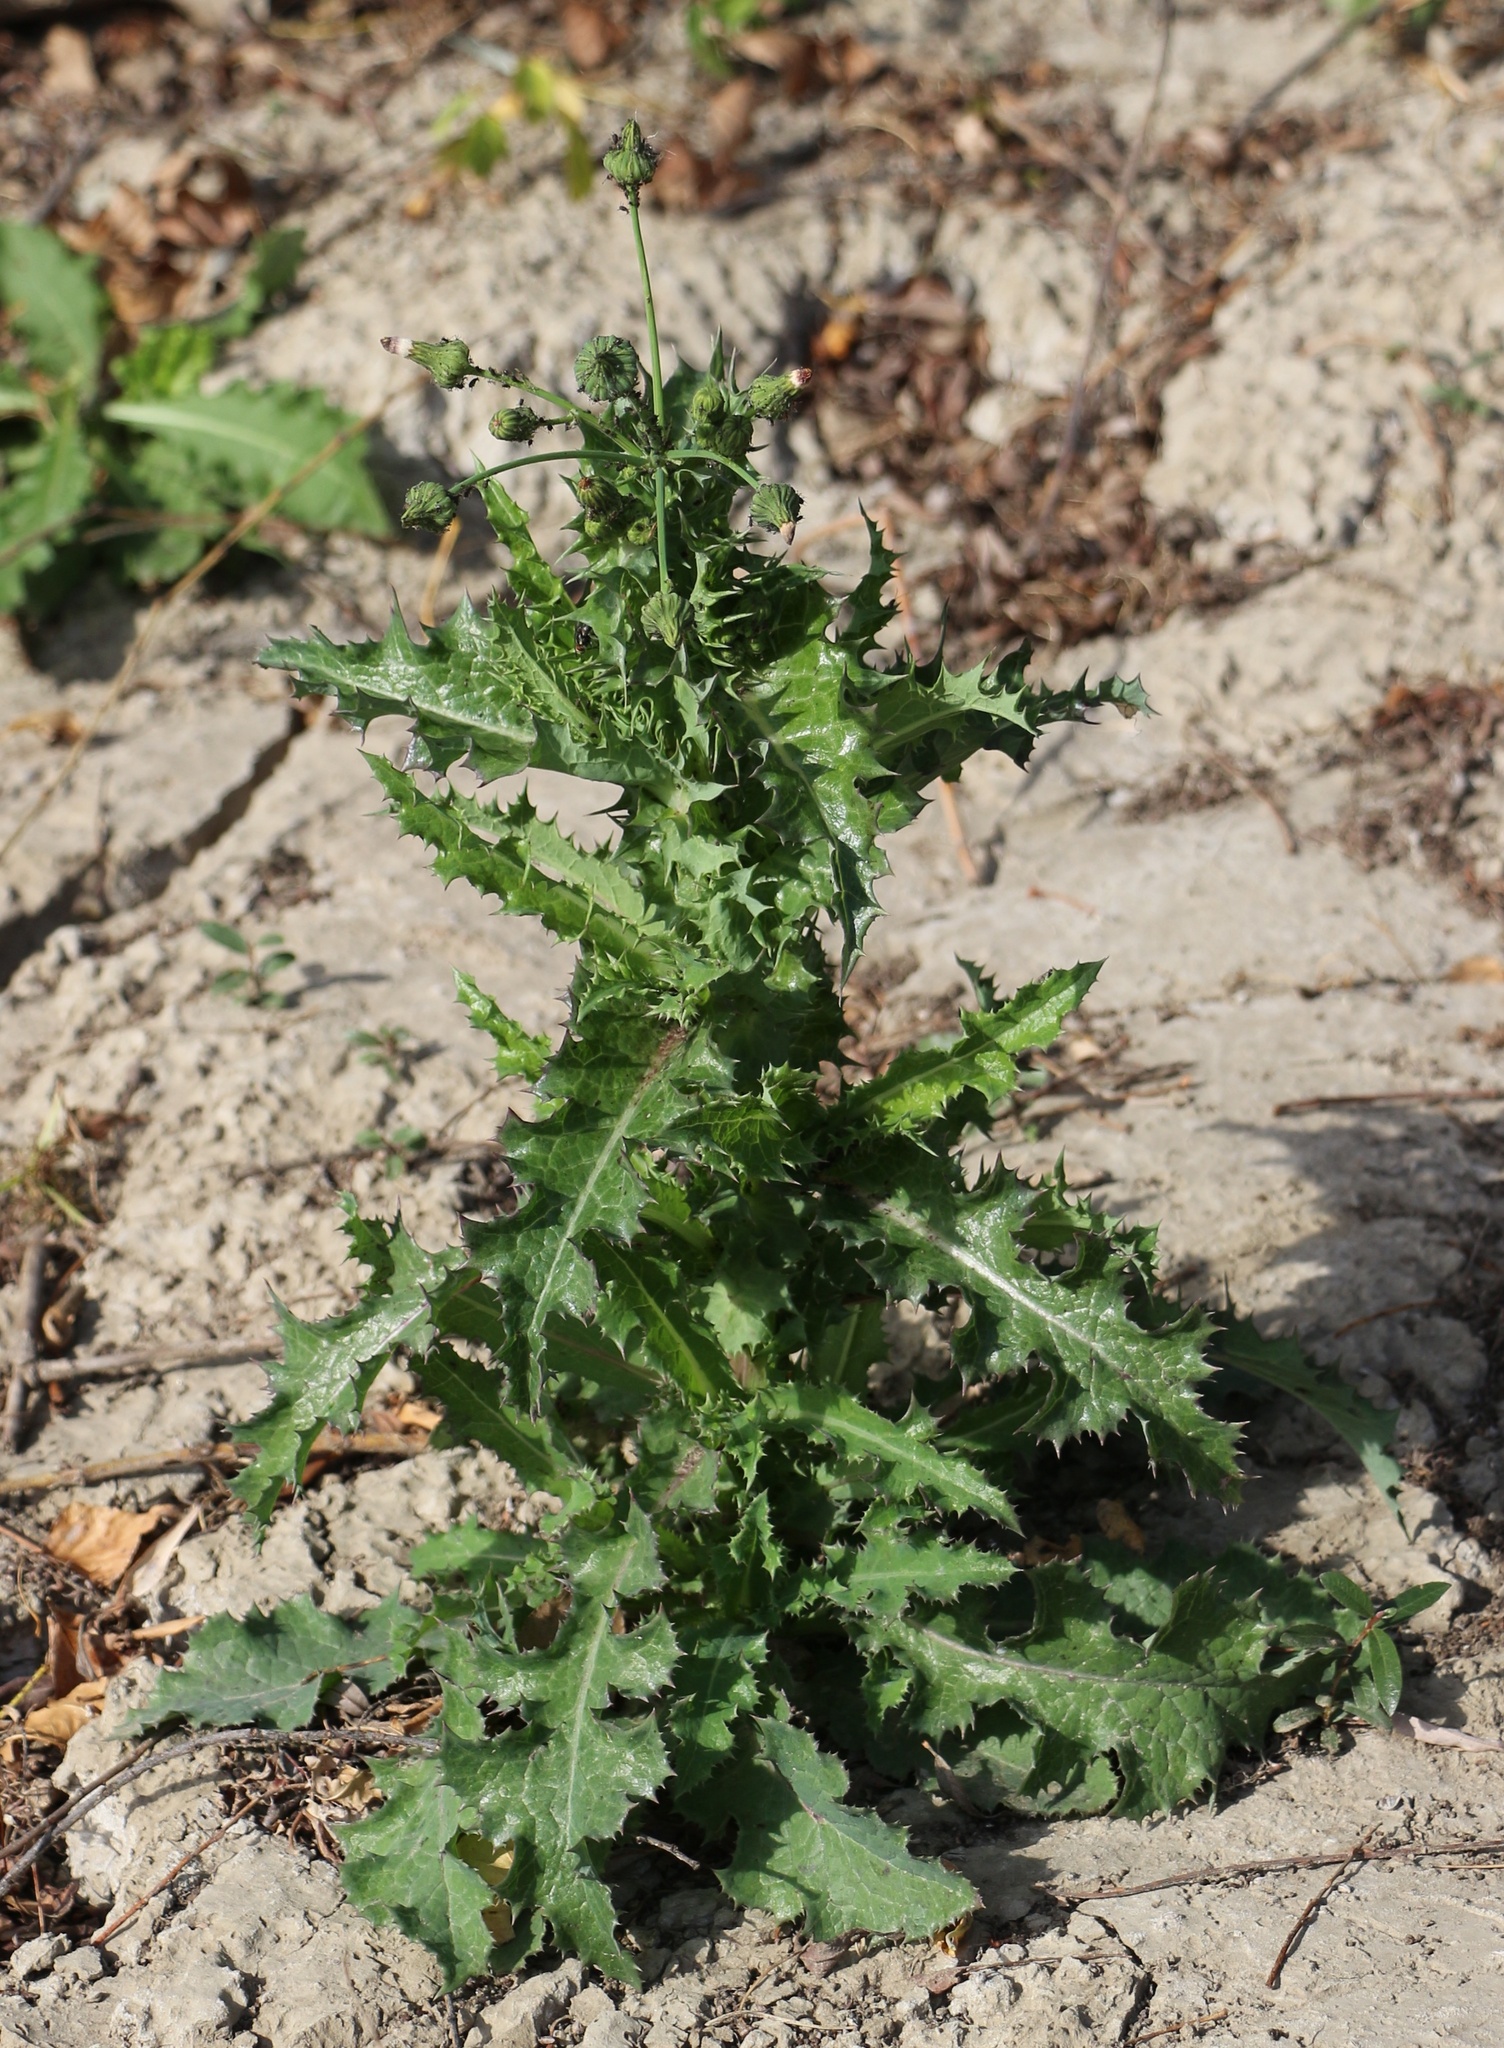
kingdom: Plantae
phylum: Tracheophyta
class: Magnoliopsida
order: Asterales
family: Asteraceae
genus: Sonchus
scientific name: Sonchus asper
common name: Prickly sow-thistle
